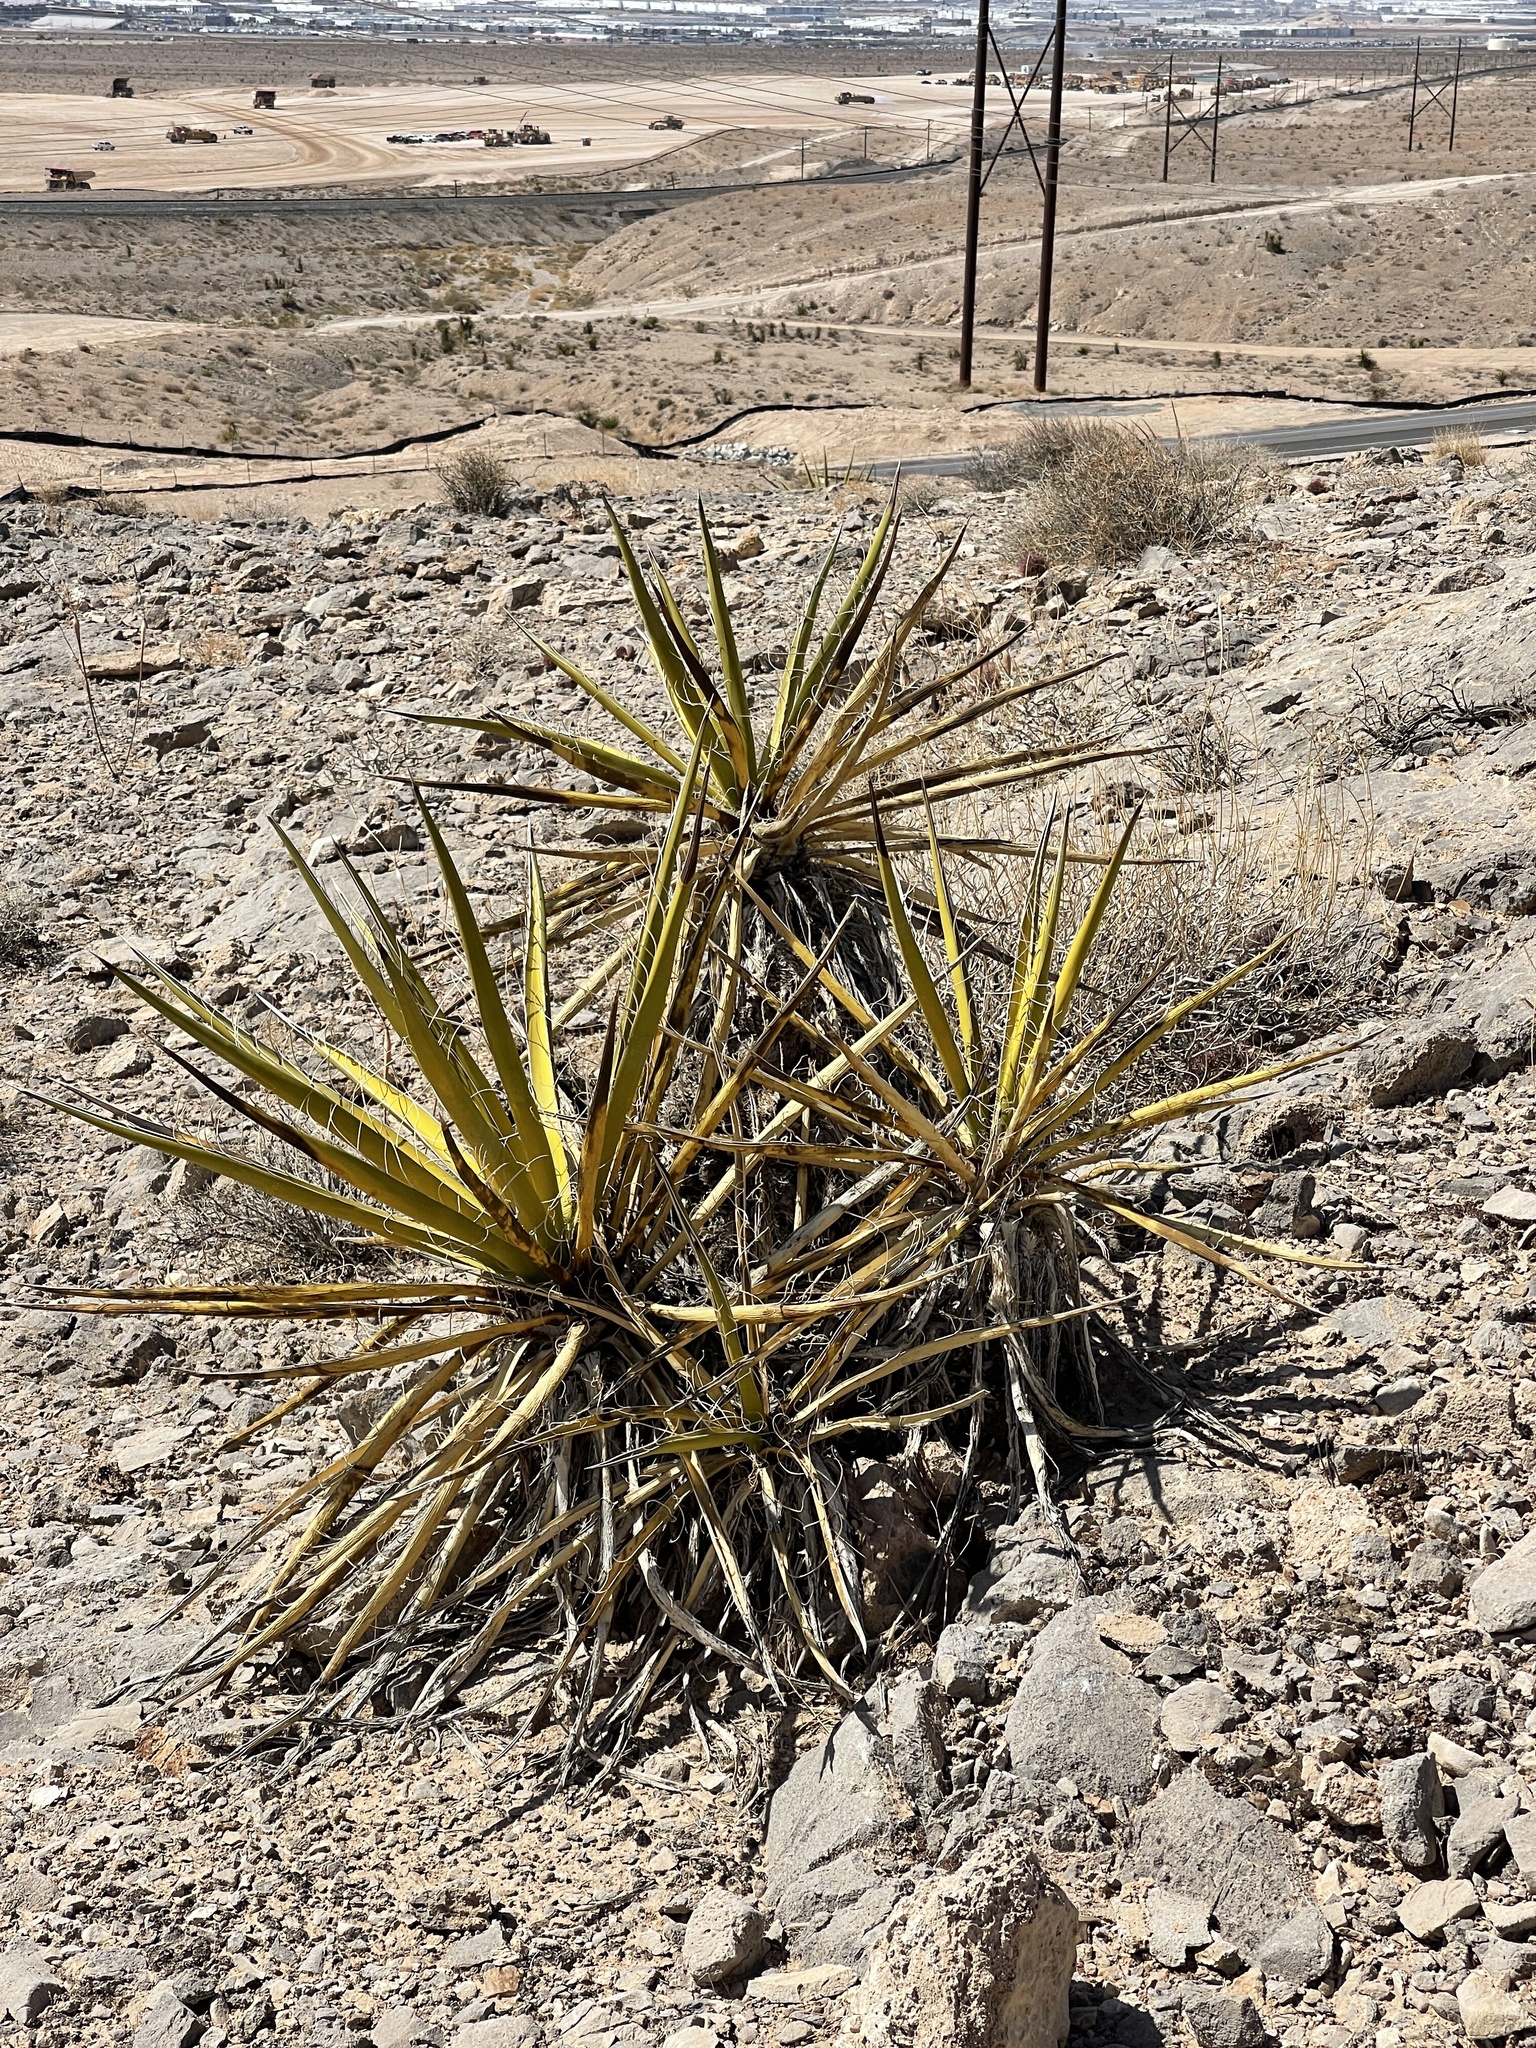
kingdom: Plantae
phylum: Tracheophyta
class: Liliopsida
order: Asparagales
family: Asparagaceae
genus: Yucca
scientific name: Yucca schidigera
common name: Mojave yucca
